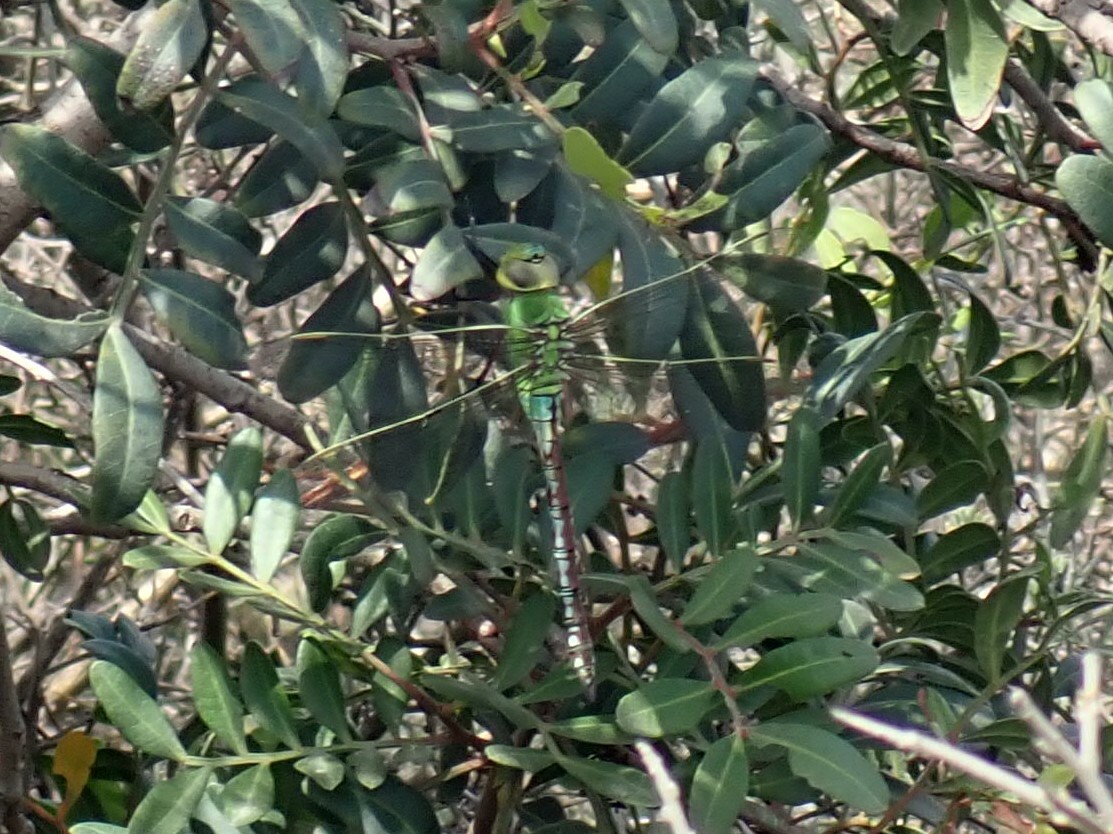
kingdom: Animalia
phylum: Arthropoda
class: Insecta
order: Odonata
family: Aeshnidae
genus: Anax
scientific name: Anax imperator
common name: Emperor dragonfly
